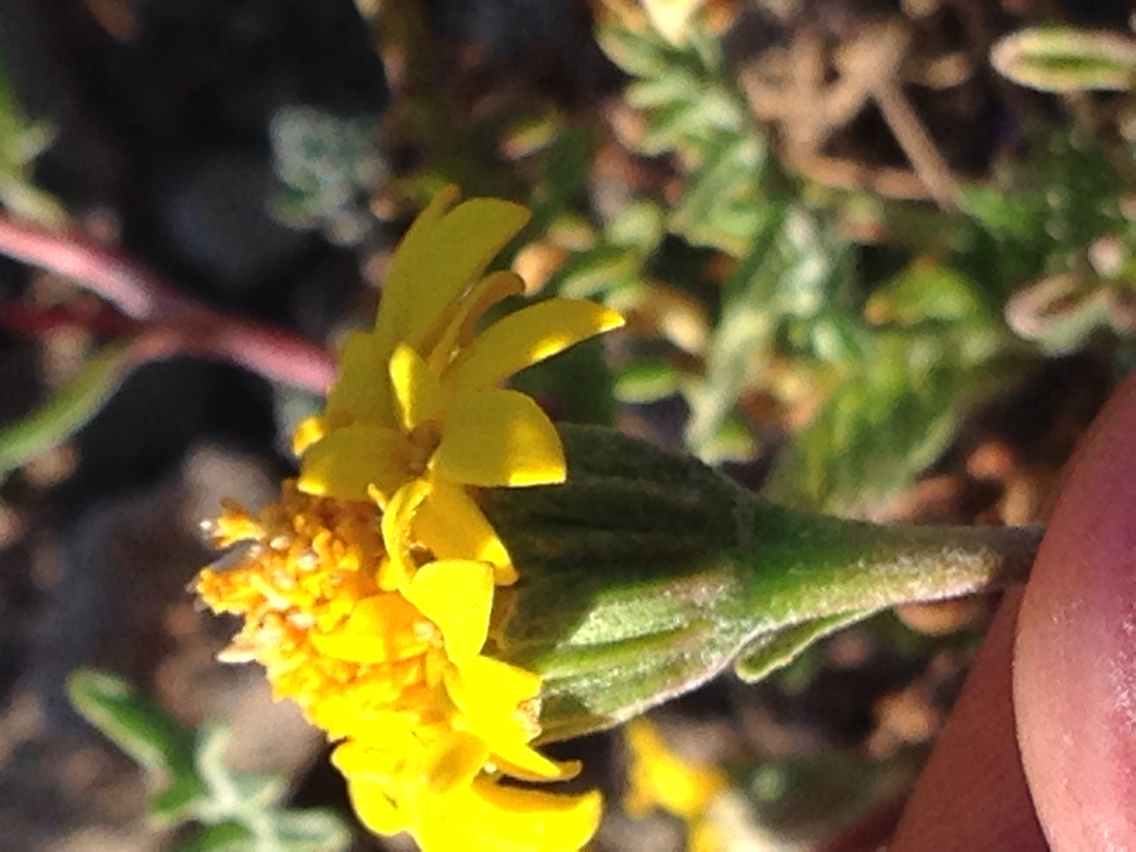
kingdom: Plantae
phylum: Tracheophyta
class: Magnoliopsida
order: Asterales
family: Asteraceae
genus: Chaenactis
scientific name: Chaenactis glabriuscula
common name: Yellow pincushion
